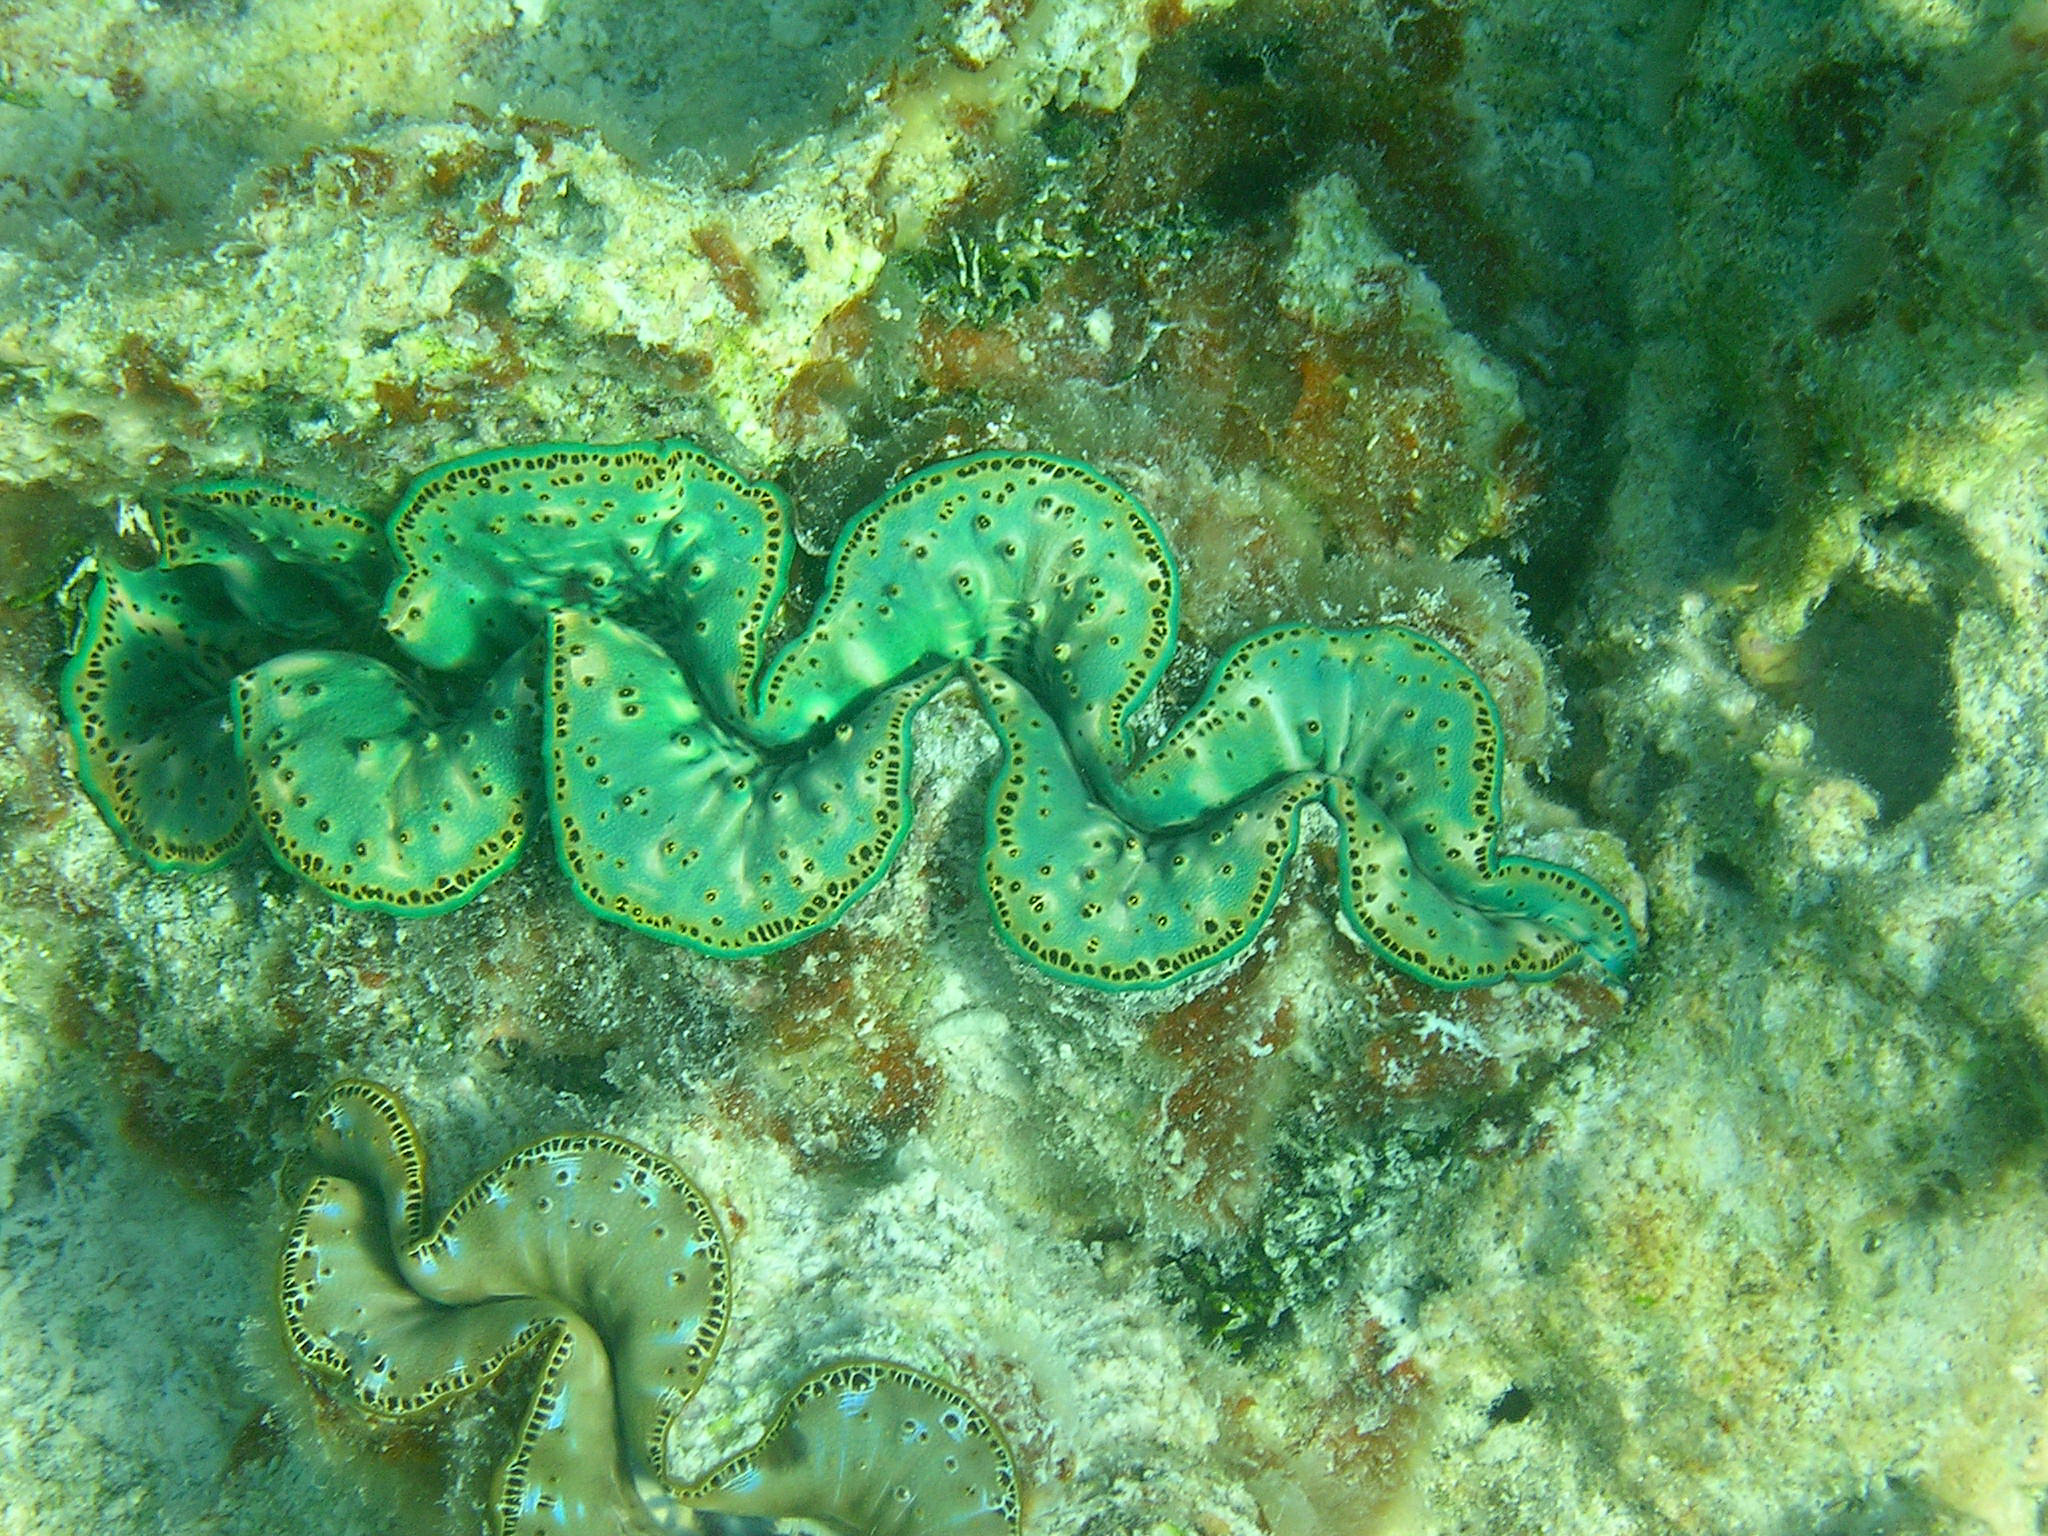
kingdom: Animalia
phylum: Mollusca
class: Bivalvia
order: Cardiida
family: Cardiidae
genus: Tridacna
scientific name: Tridacna maxima
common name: Small giant clam
